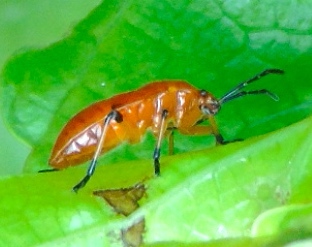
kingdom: Animalia
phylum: Arthropoda
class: Insecta
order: Hemiptera
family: Largidae
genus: Largus
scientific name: Largus
